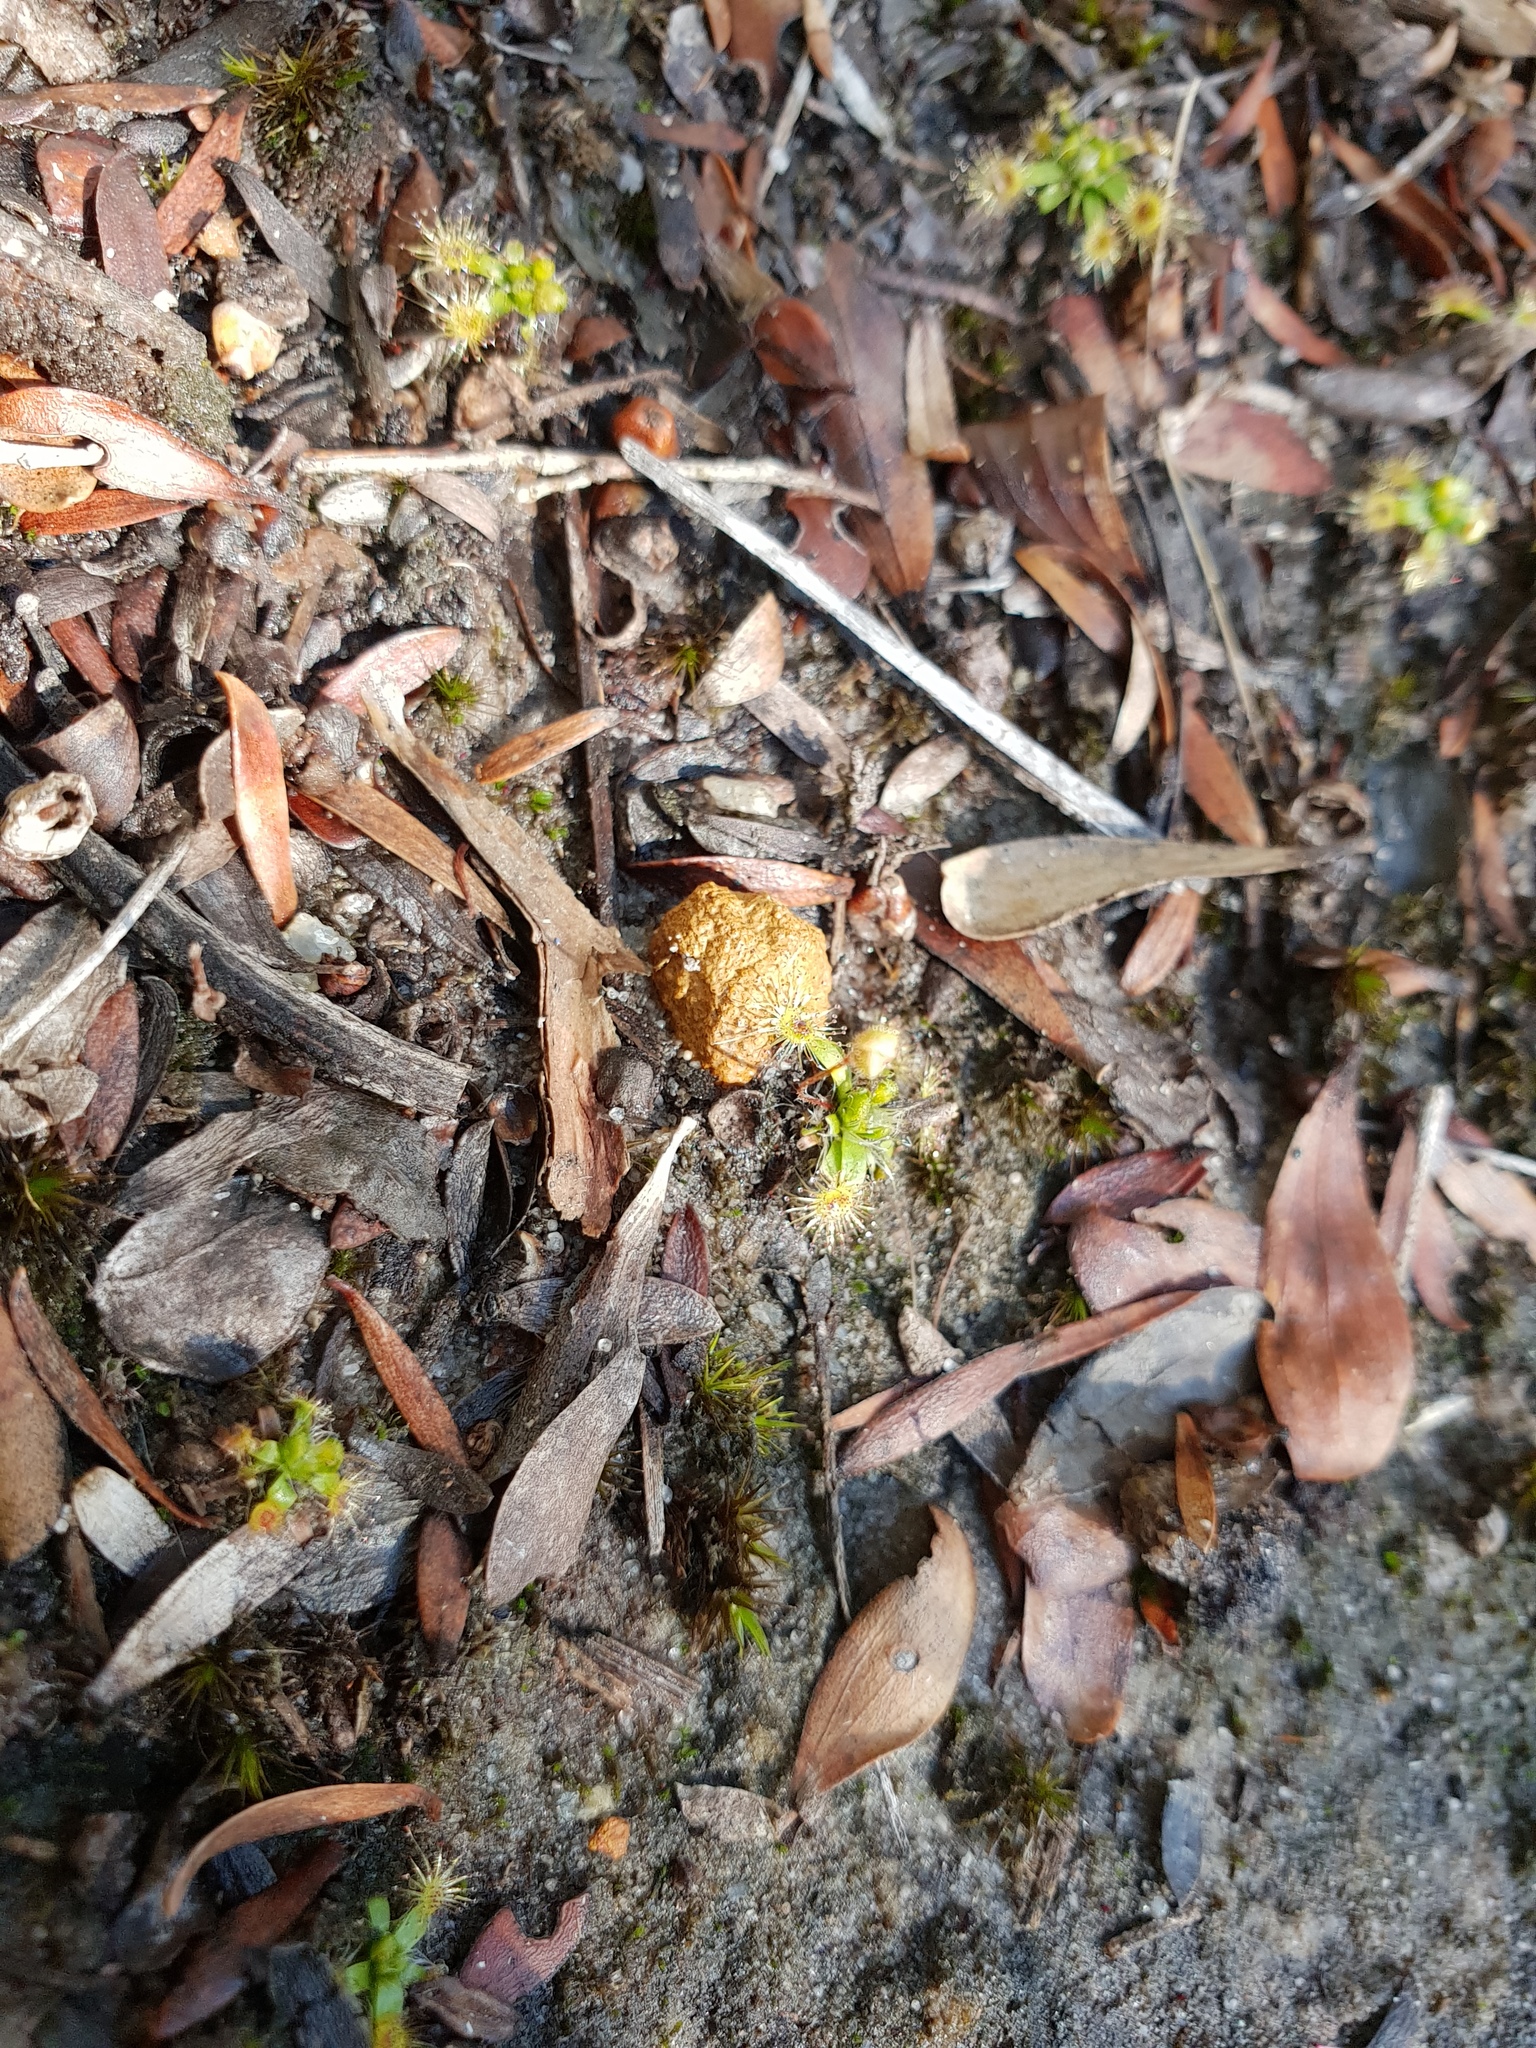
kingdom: Plantae
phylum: Tracheophyta
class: Magnoliopsida
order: Caryophyllales
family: Droseraceae
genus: Drosera
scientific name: Drosera pulchella
